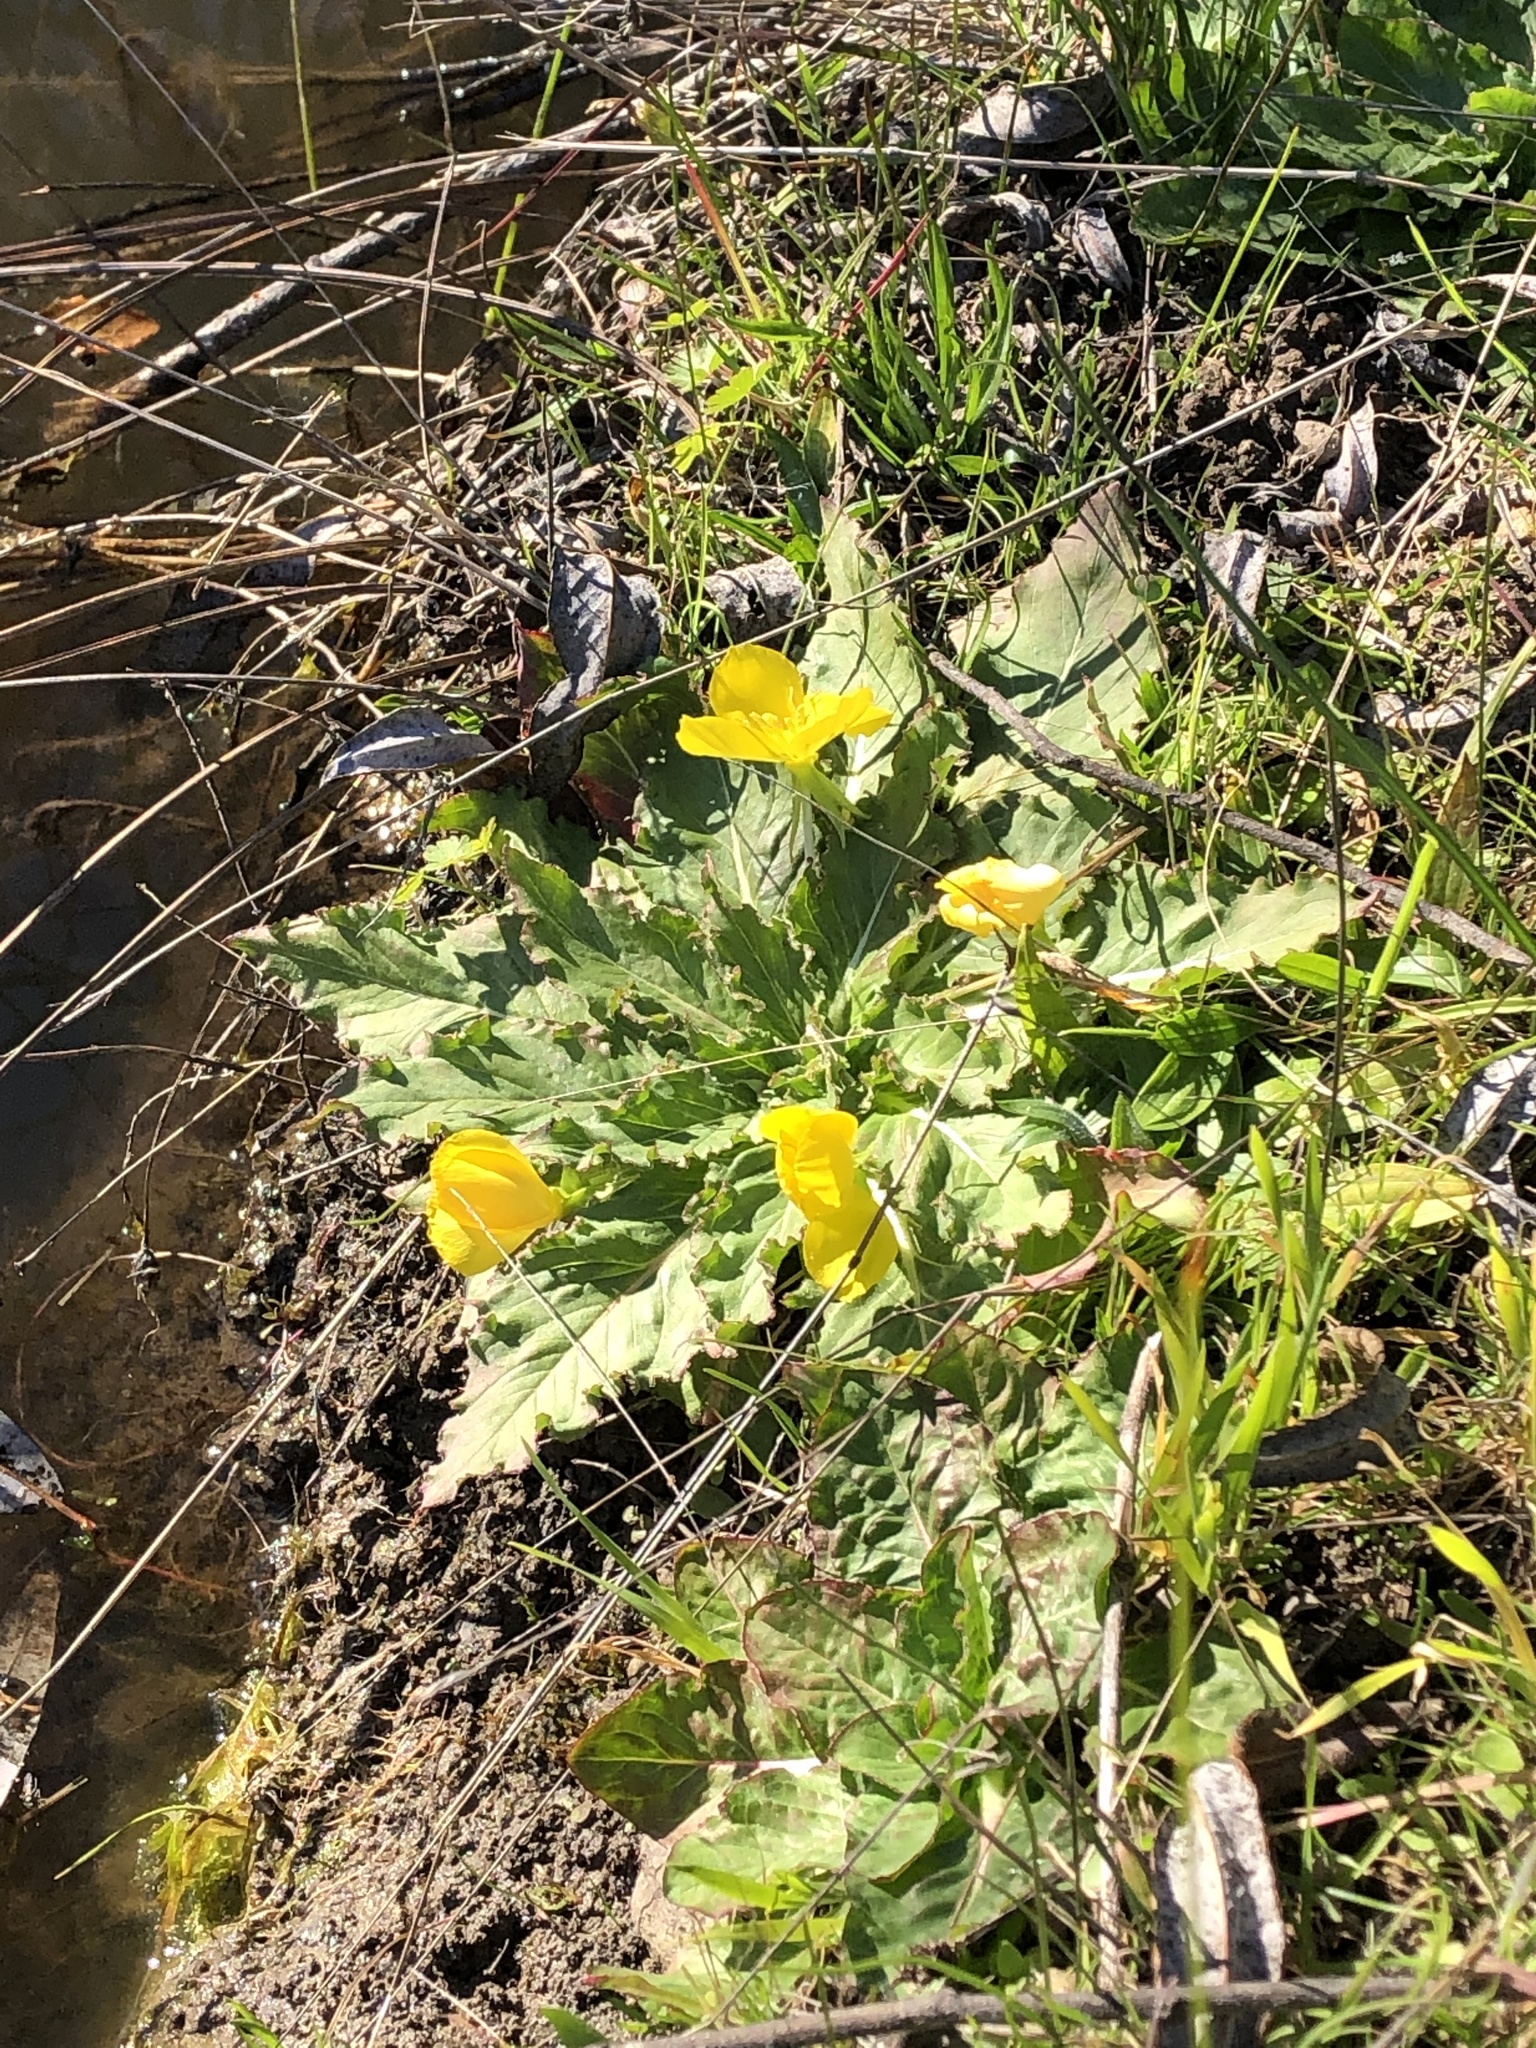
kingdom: Plantae
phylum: Tracheophyta
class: Magnoliopsida
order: Myrtales
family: Onagraceae
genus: Taraxia
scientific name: Taraxia ovata
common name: Goldeneggs
